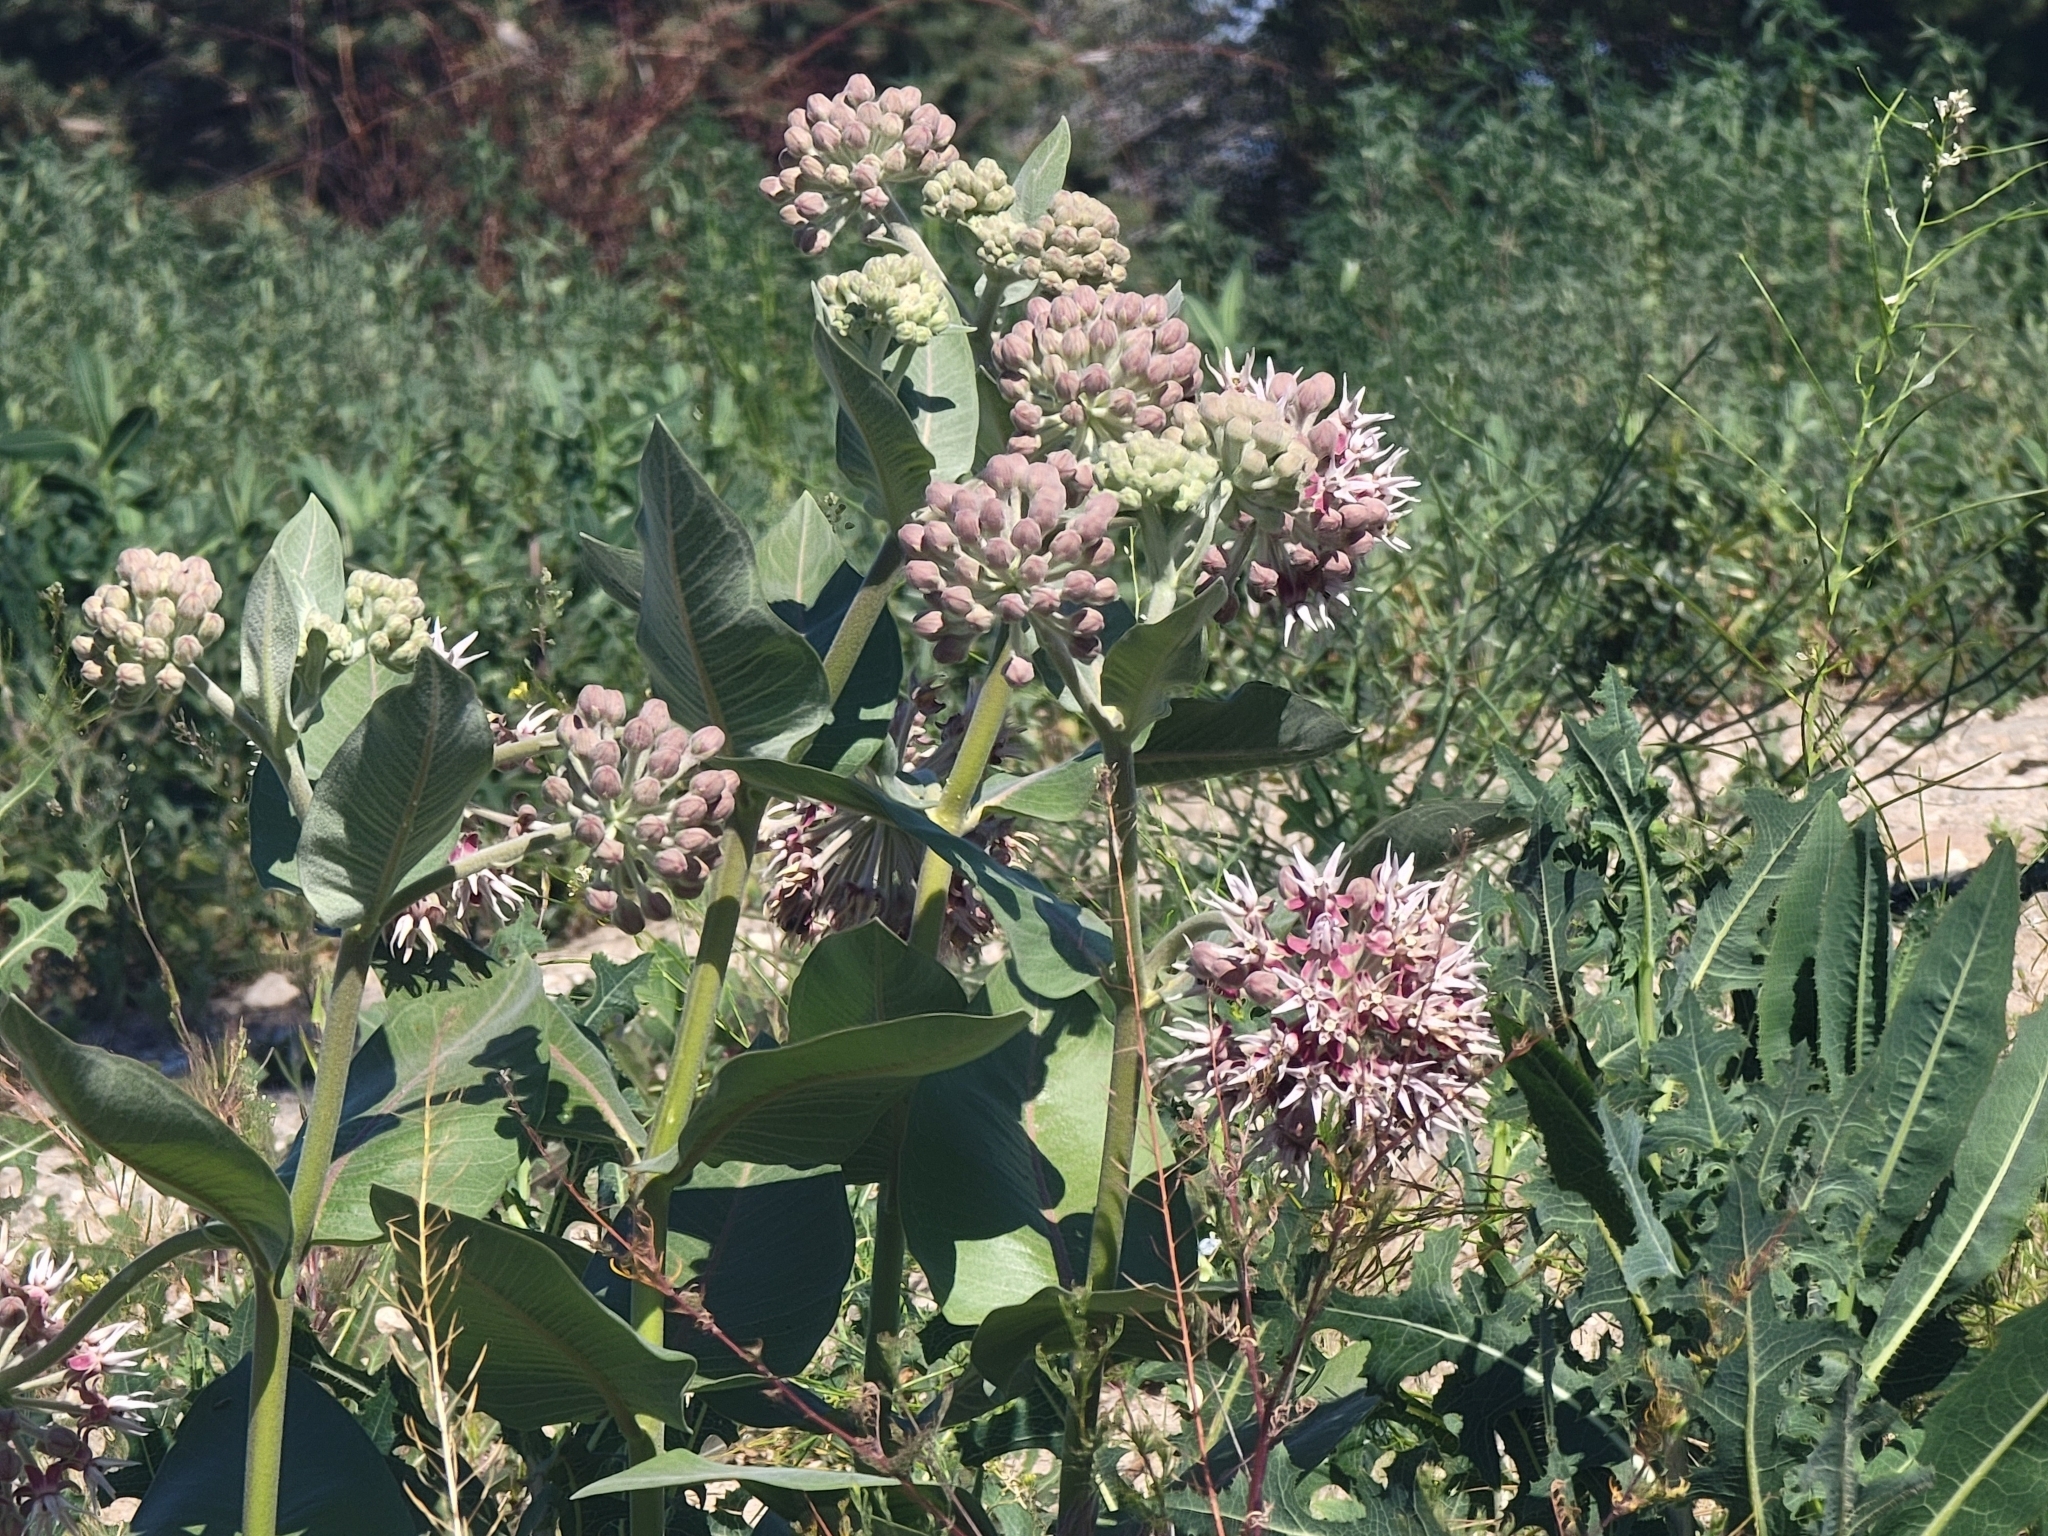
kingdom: Plantae
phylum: Tracheophyta
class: Magnoliopsida
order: Gentianales
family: Apocynaceae
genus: Asclepias
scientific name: Asclepias speciosa
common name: Showy milkweed
